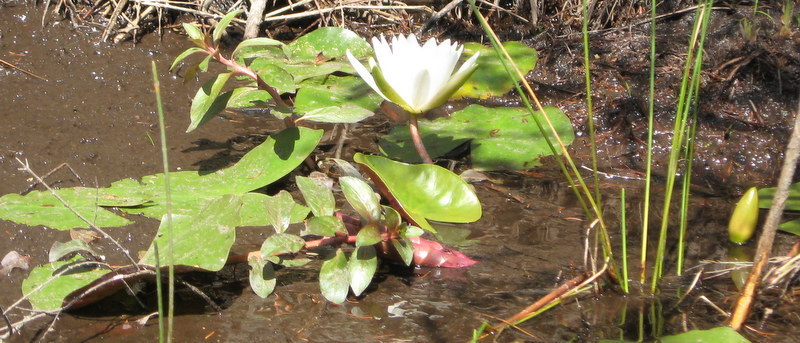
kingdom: Plantae
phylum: Tracheophyta
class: Magnoliopsida
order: Nymphaeales
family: Nymphaeaceae
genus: Nymphaea
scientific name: Nymphaea odorata
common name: Fragrant water-lily
